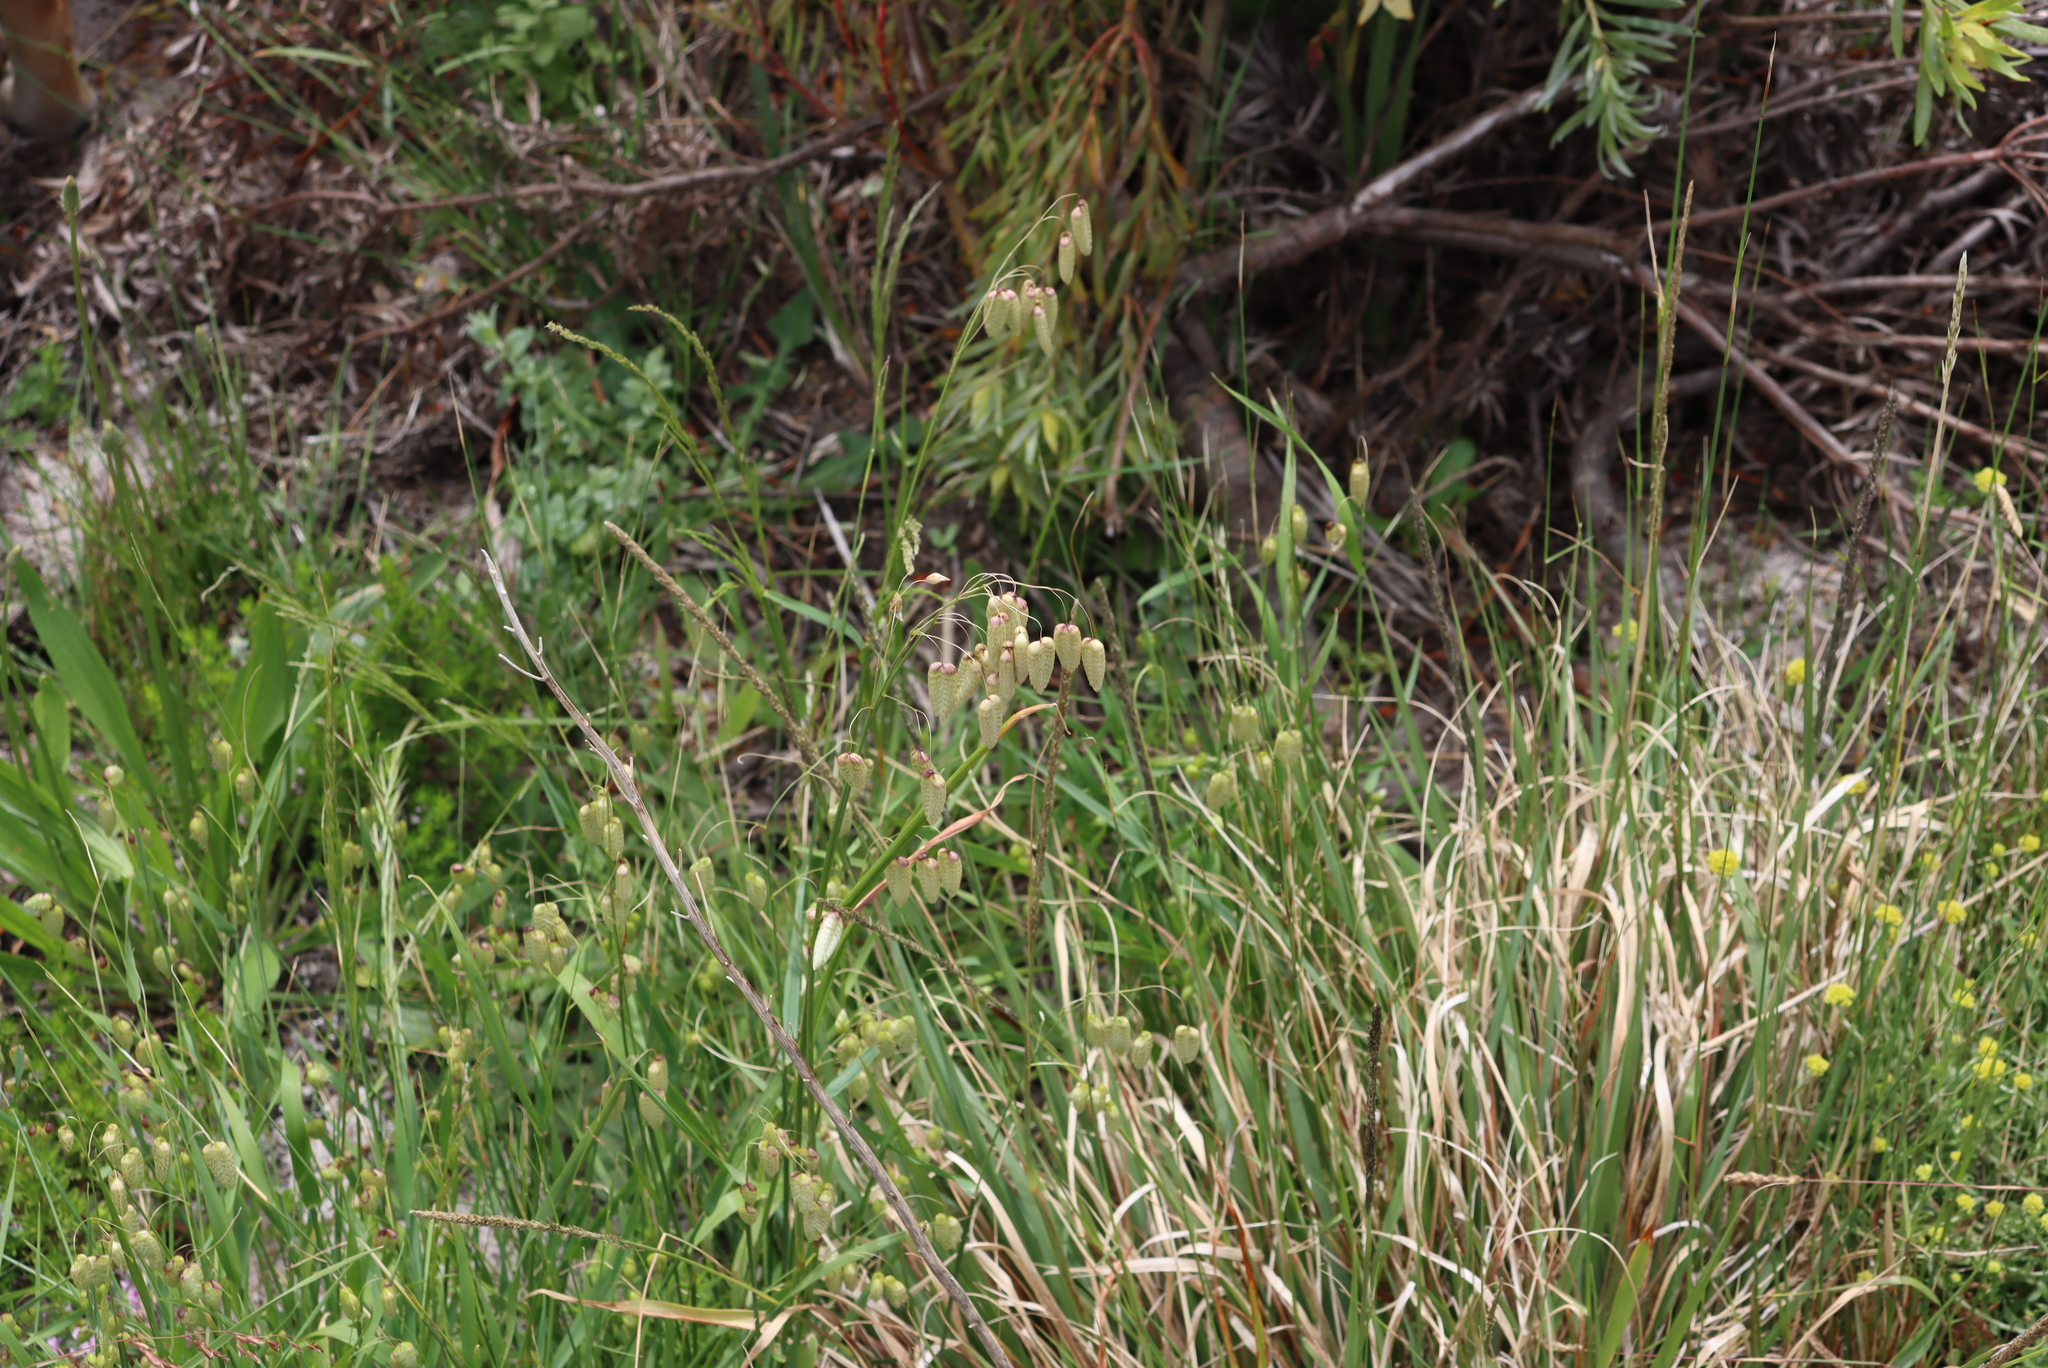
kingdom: Plantae
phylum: Tracheophyta
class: Liliopsida
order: Poales
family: Poaceae
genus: Briza
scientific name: Briza maxima
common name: Big quakinggrass
